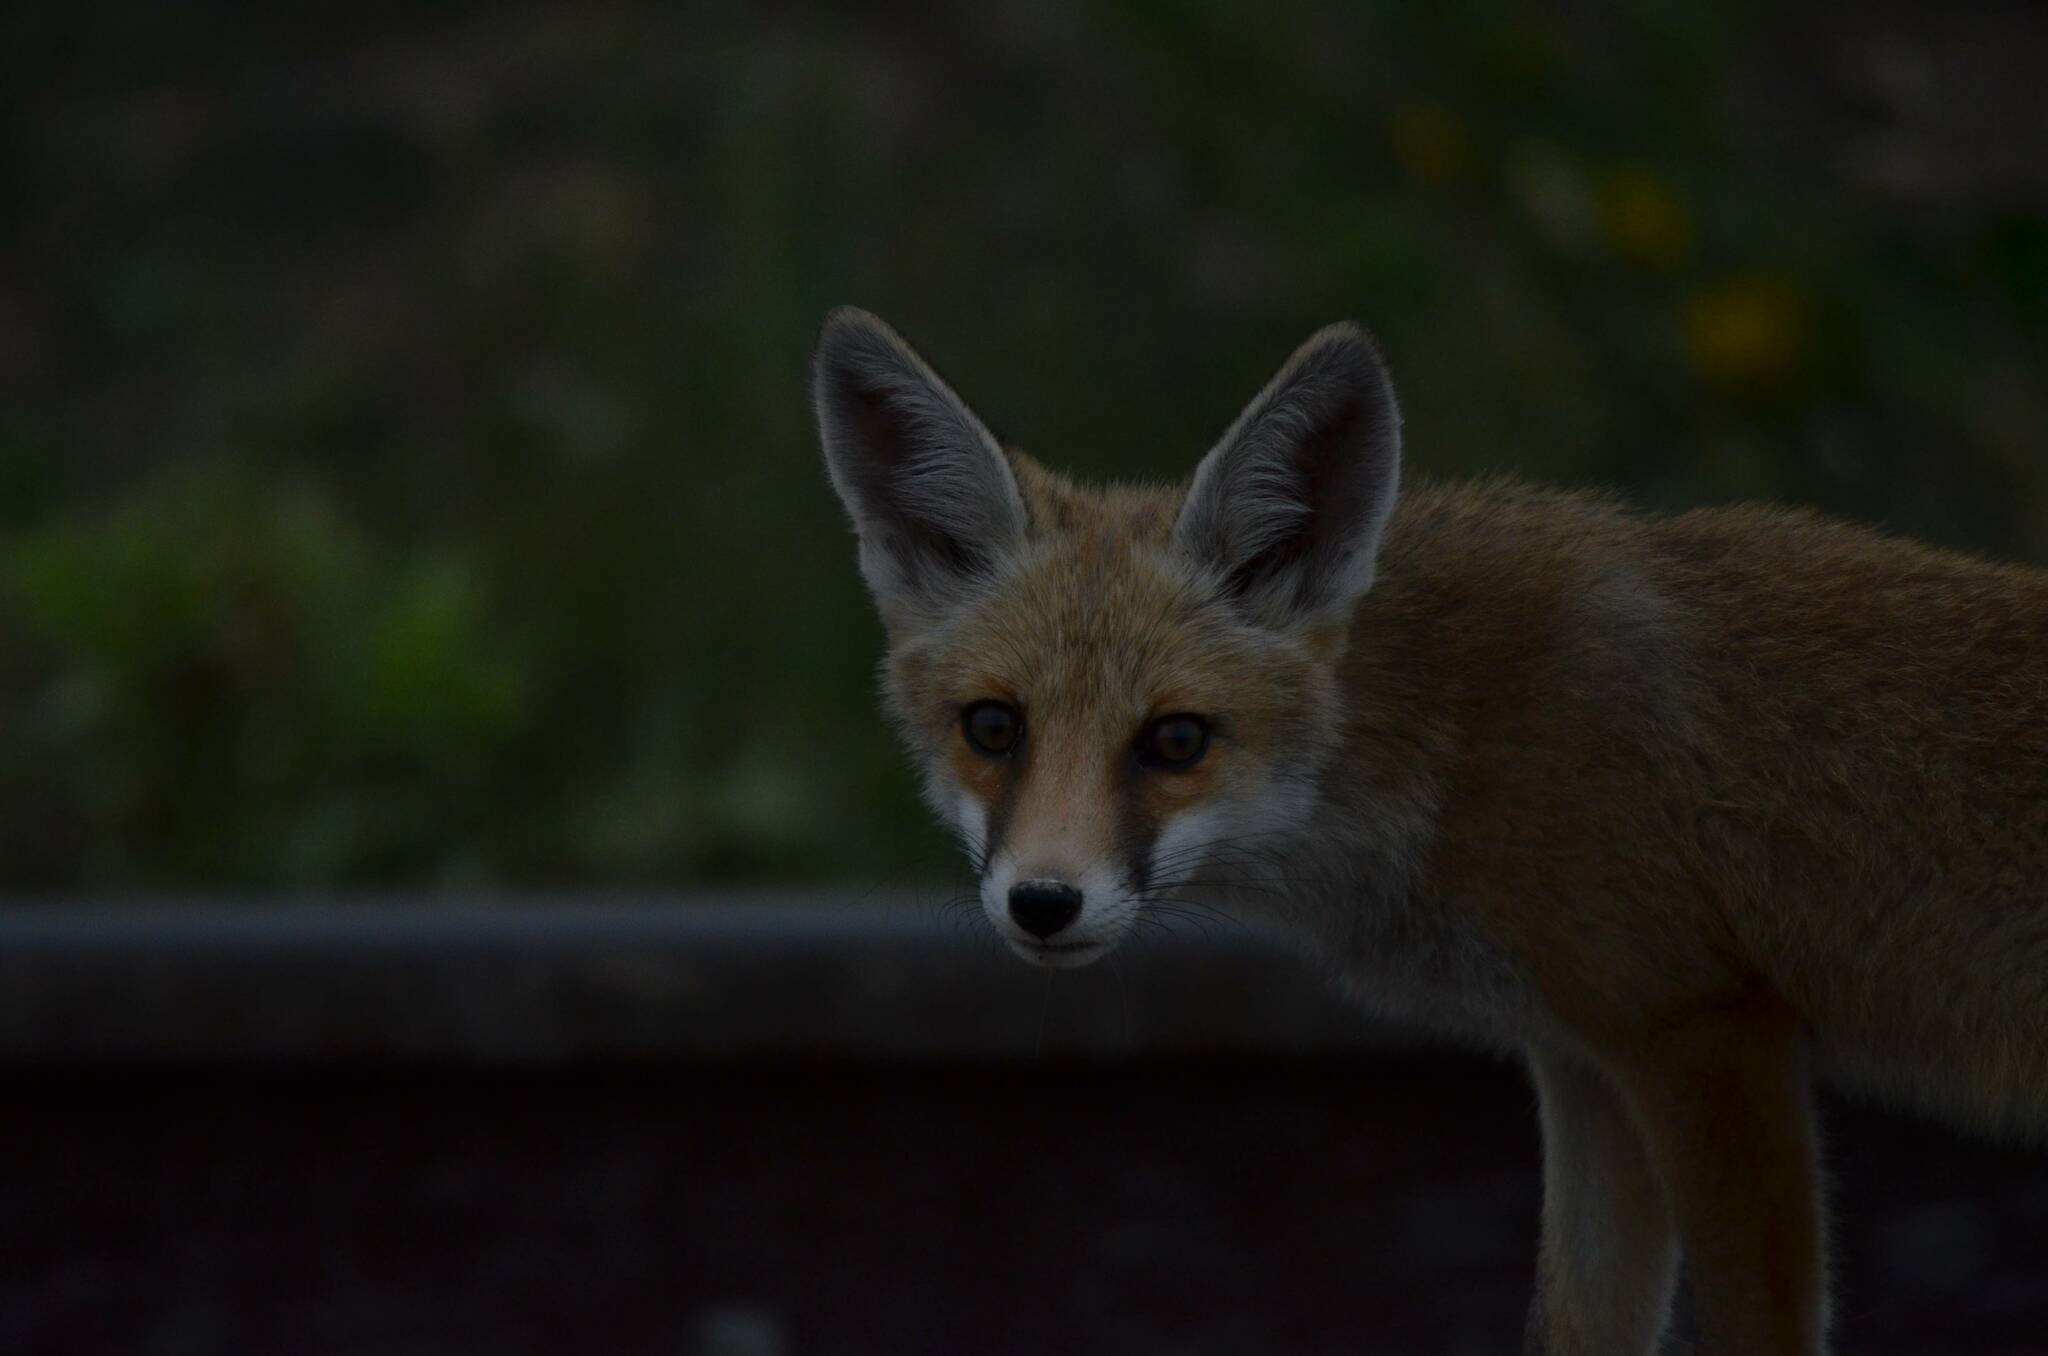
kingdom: Animalia
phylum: Chordata
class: Mammalia
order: Carnivora
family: Canidae
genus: Vulpes
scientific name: Vulpes vulpes
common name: Red fox
